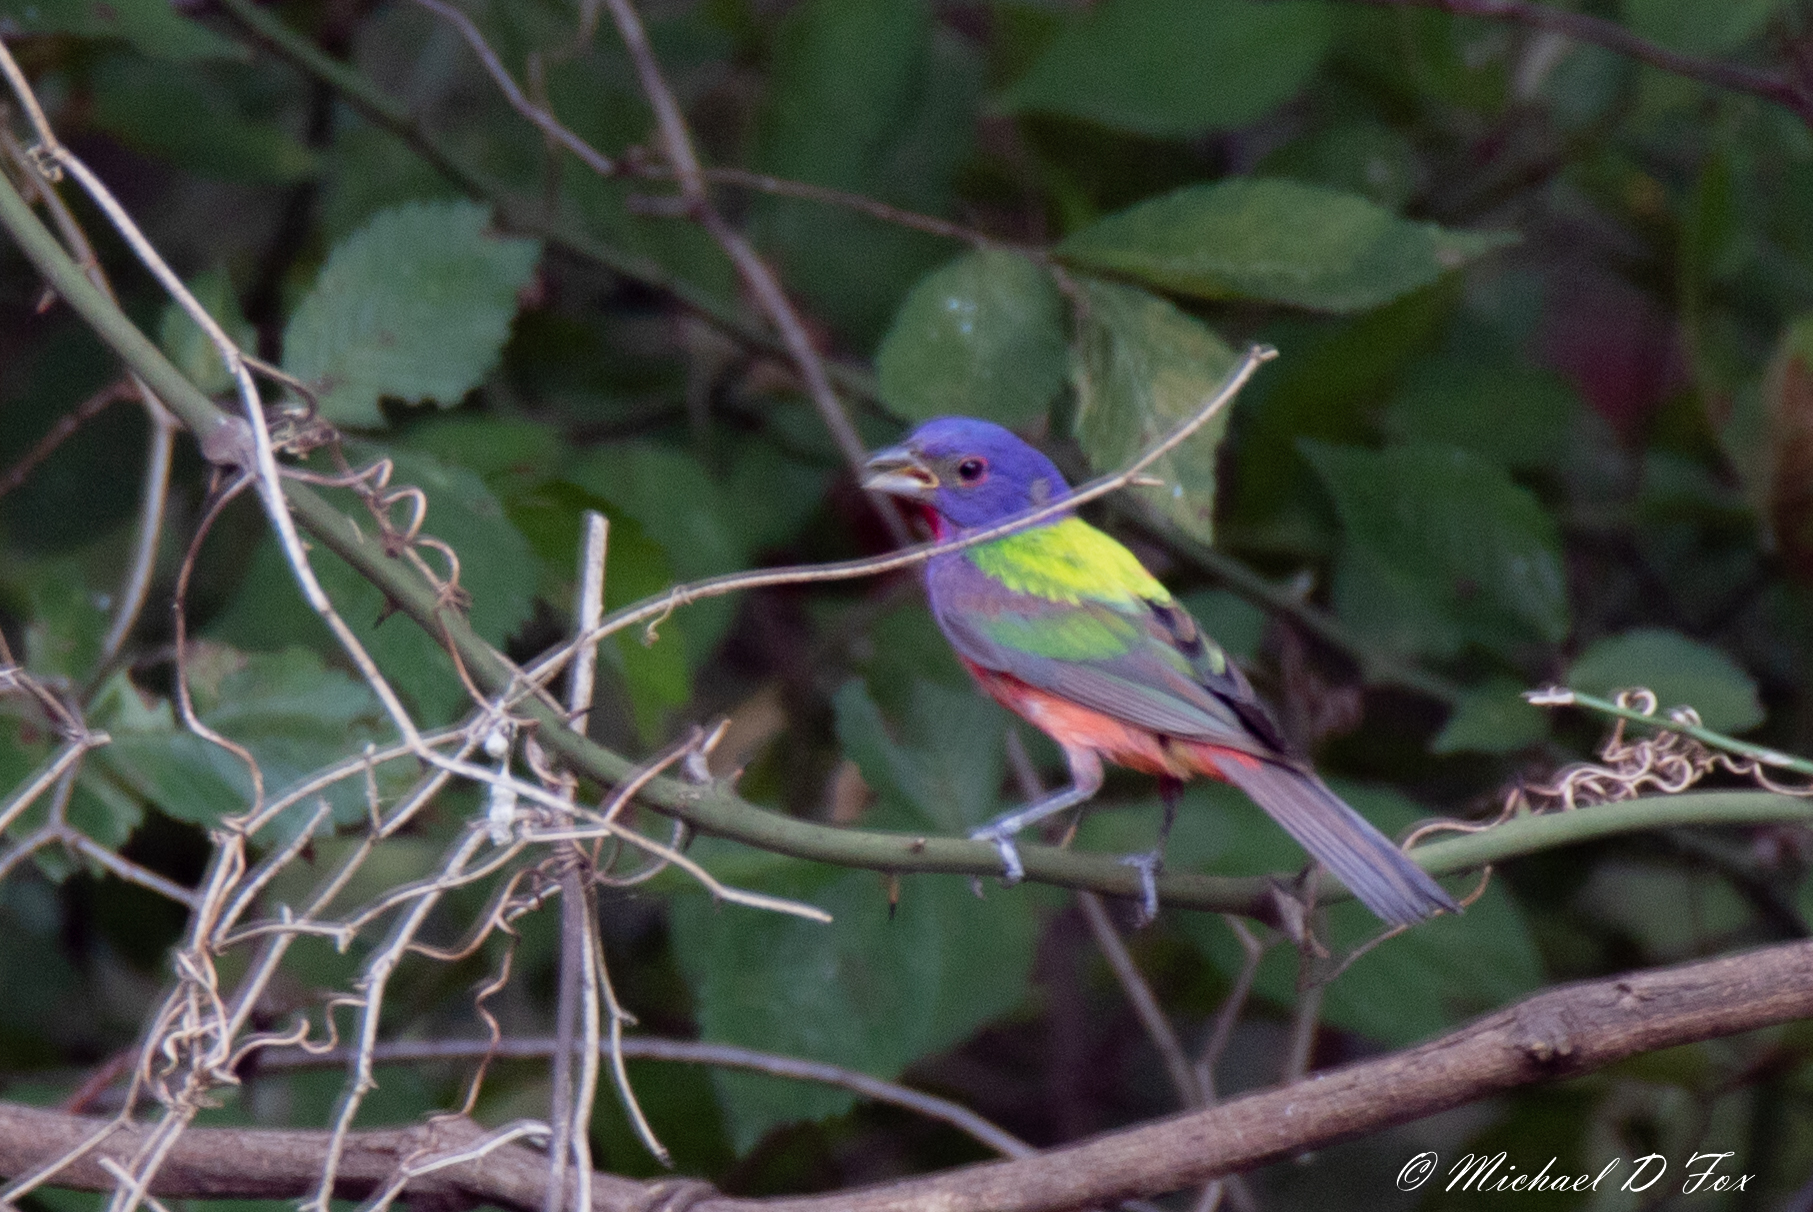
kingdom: Animalia
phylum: Chordata
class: Aves
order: Passeriformes
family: Cardinalidae
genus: Passerina
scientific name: Passerina ciris
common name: Painted bunting
